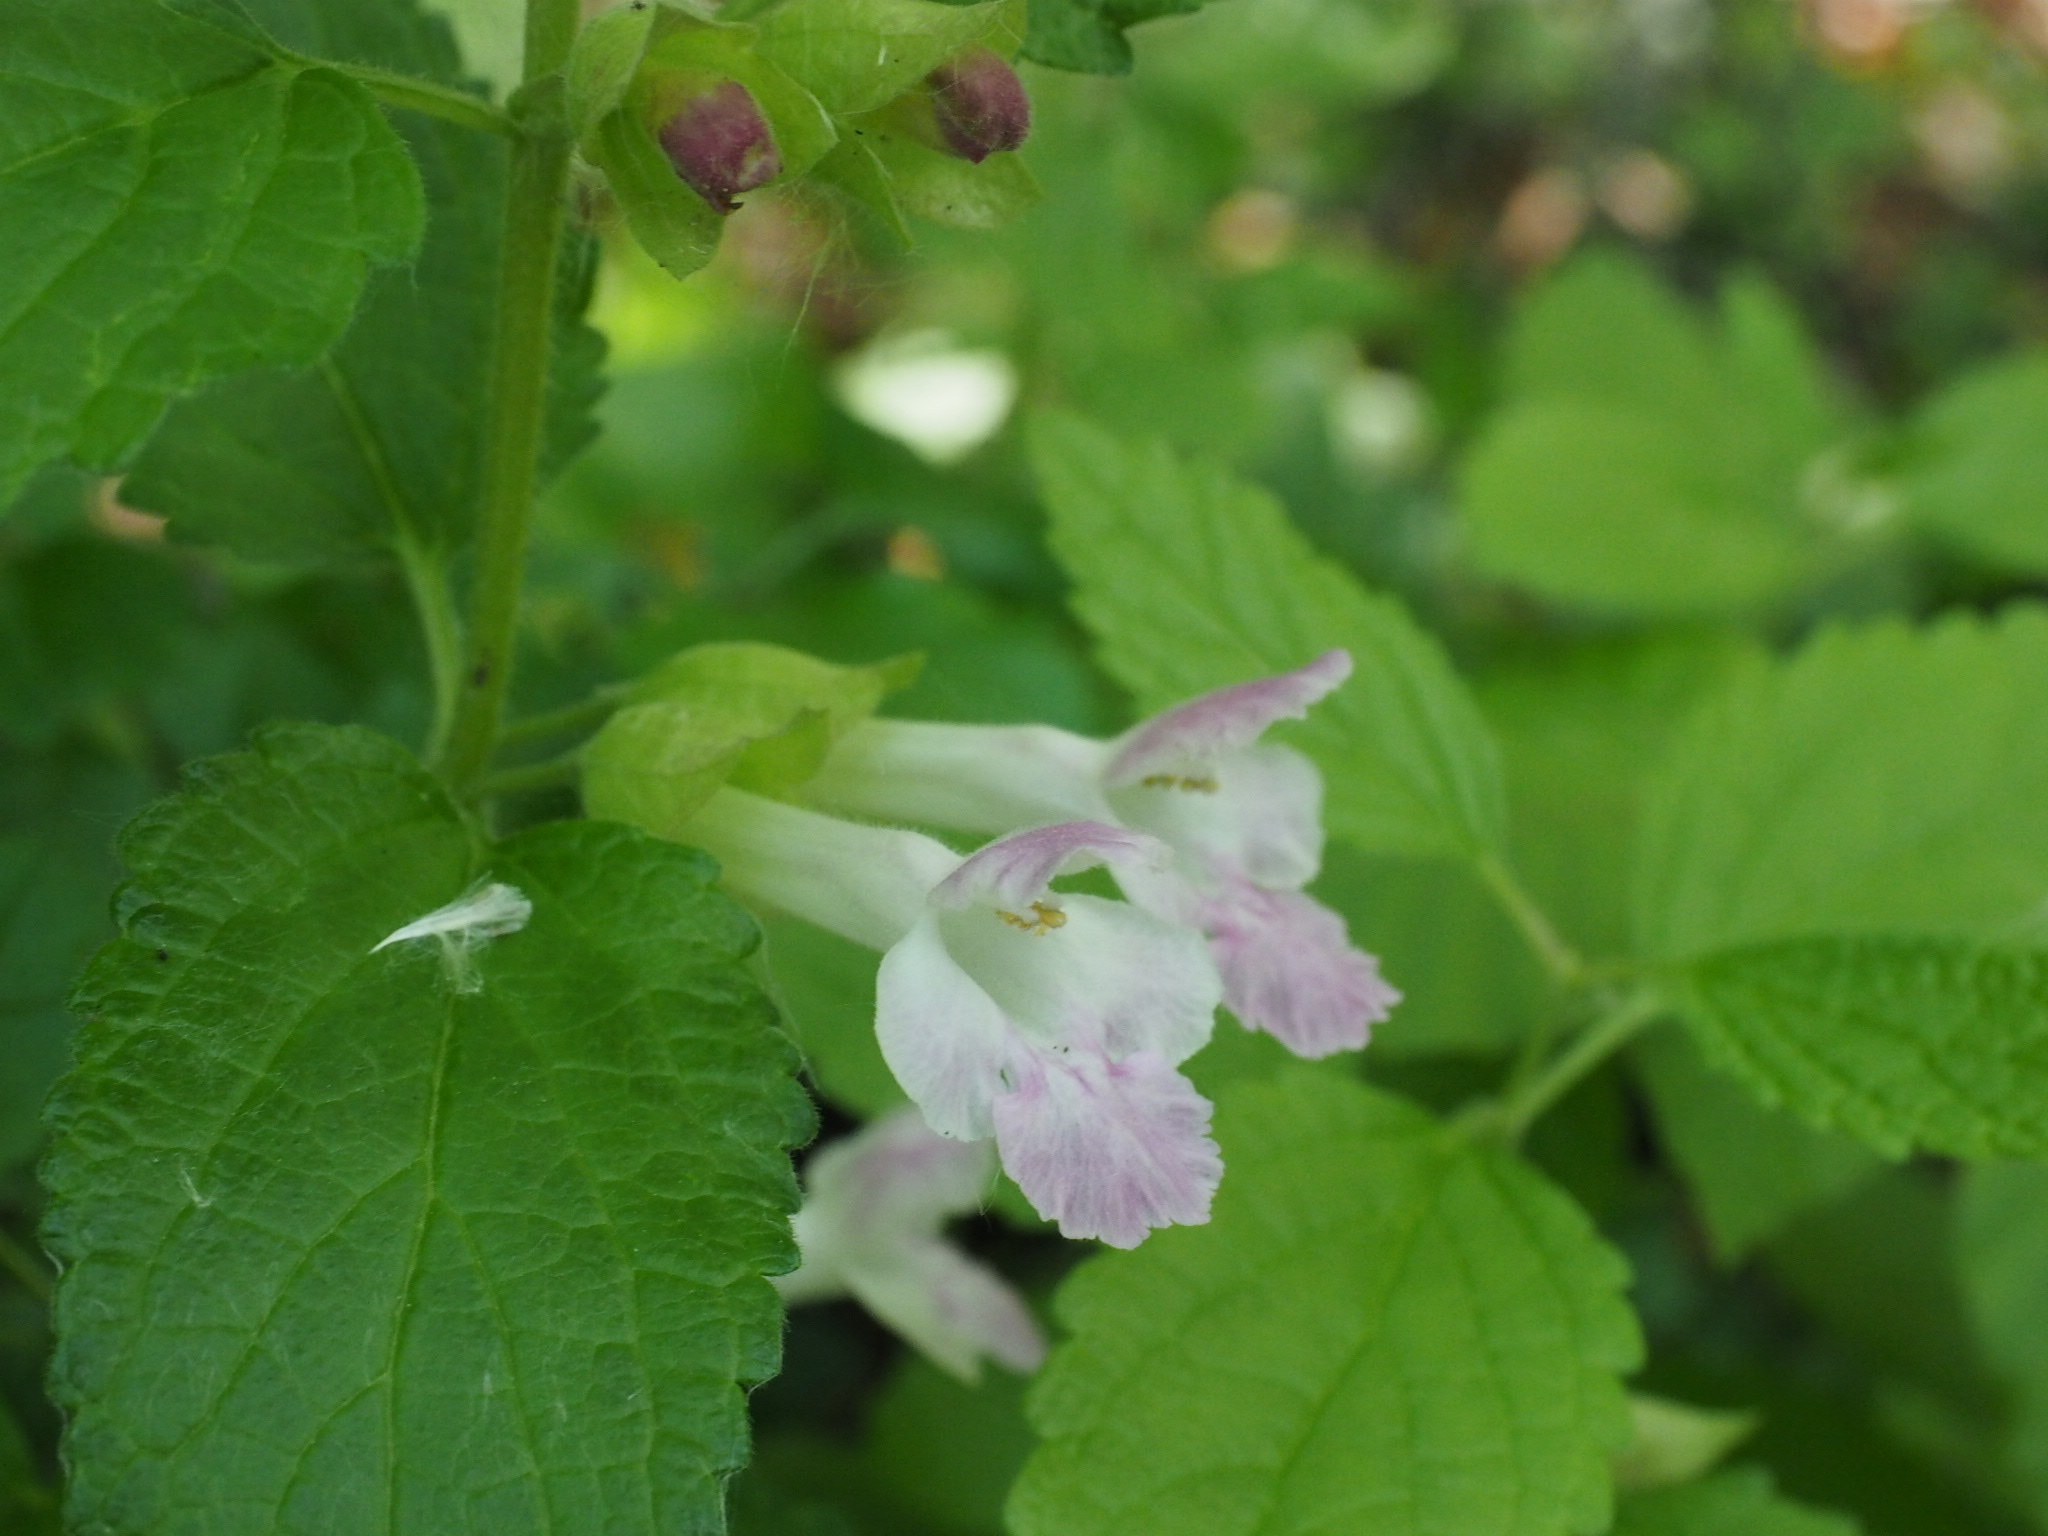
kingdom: Plantae
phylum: Tracheophyta
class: Magnoliopsida
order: Lamiales
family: Lamiaceae
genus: Melittis
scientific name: Melittis melissophyllum
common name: Bastard balm
